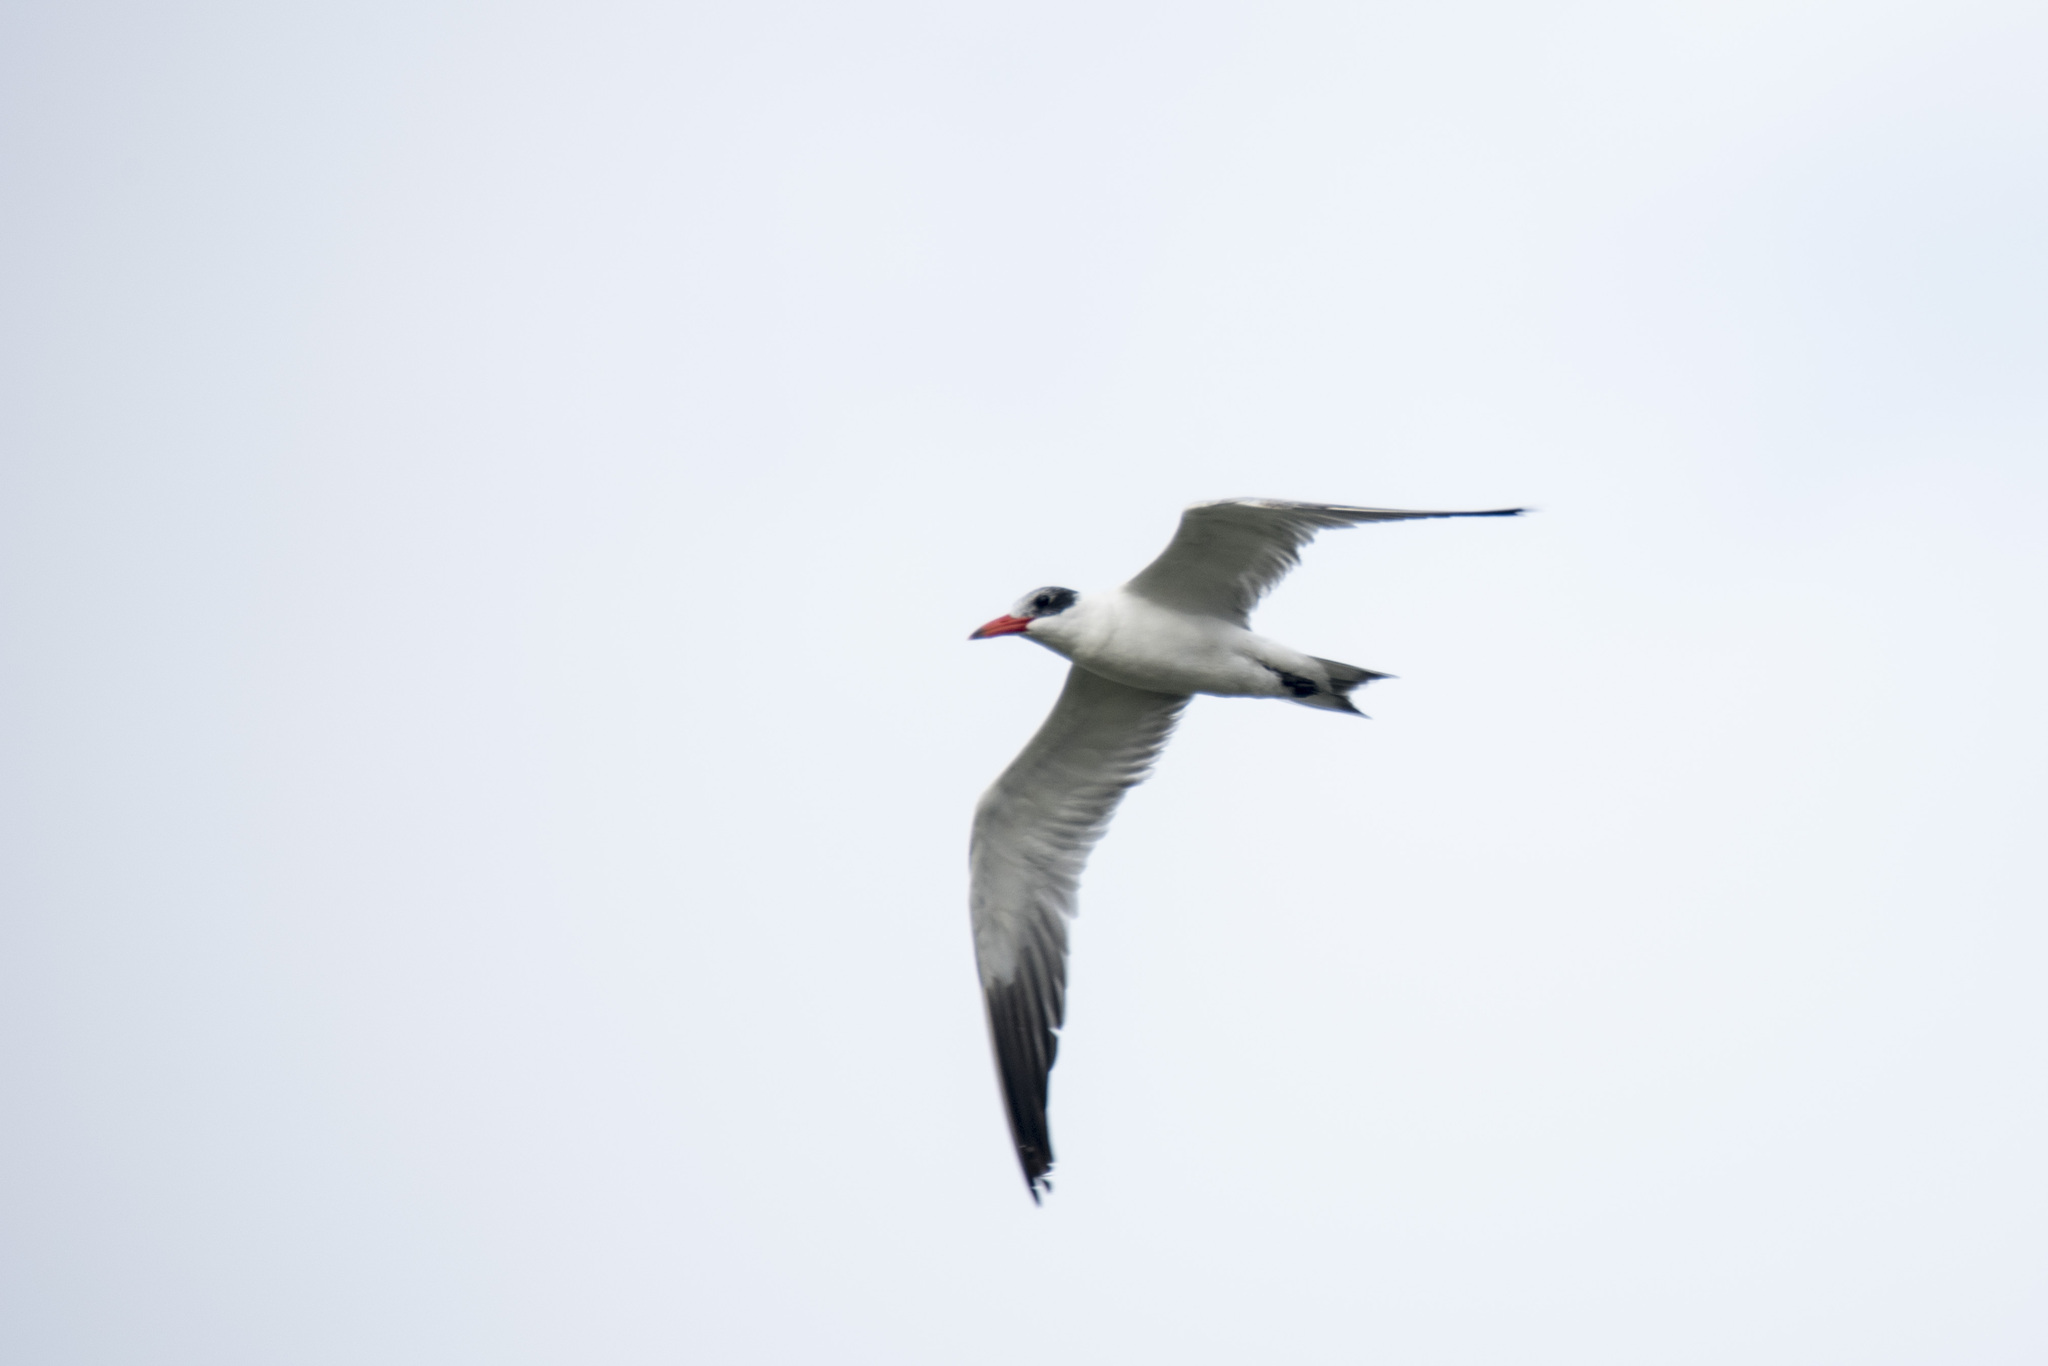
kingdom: Animalia
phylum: Chordata
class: Aves
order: Charadriiformes
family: Laridae
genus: Hydroprogne
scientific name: Hydroprogne caspia
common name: Caspian tern
